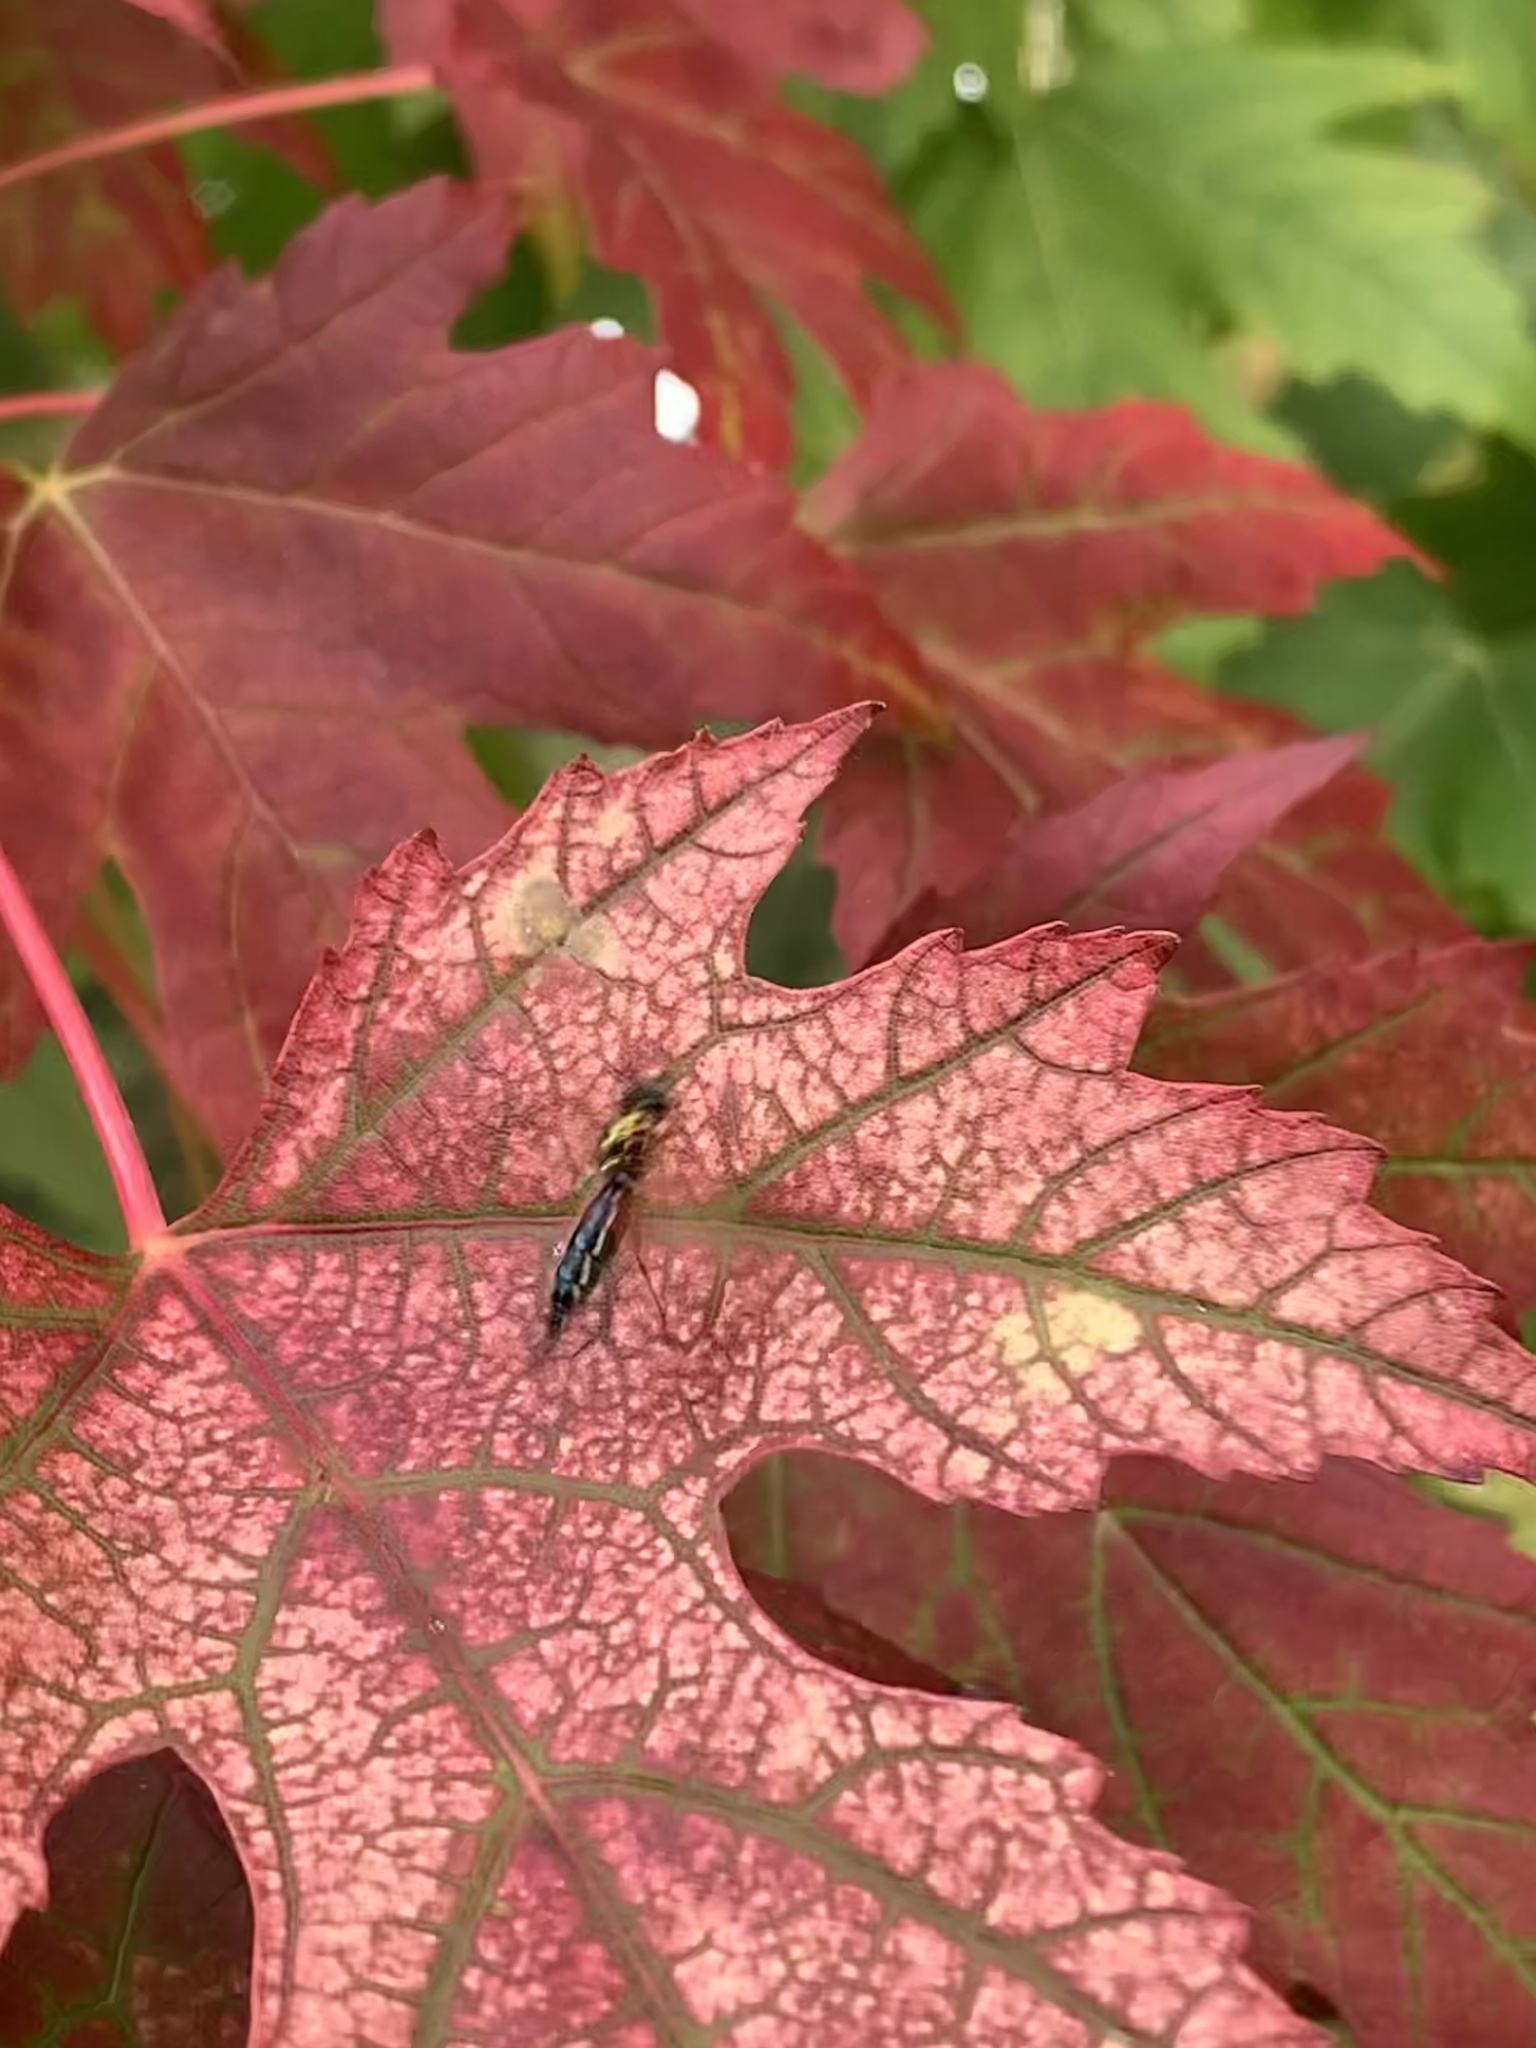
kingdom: Animalia
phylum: Arthropoda
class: Insecta
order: Diptera
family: Stratiomyidae
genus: Sargus
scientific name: Sargus bipunctatus
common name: Twin-spot centurion
